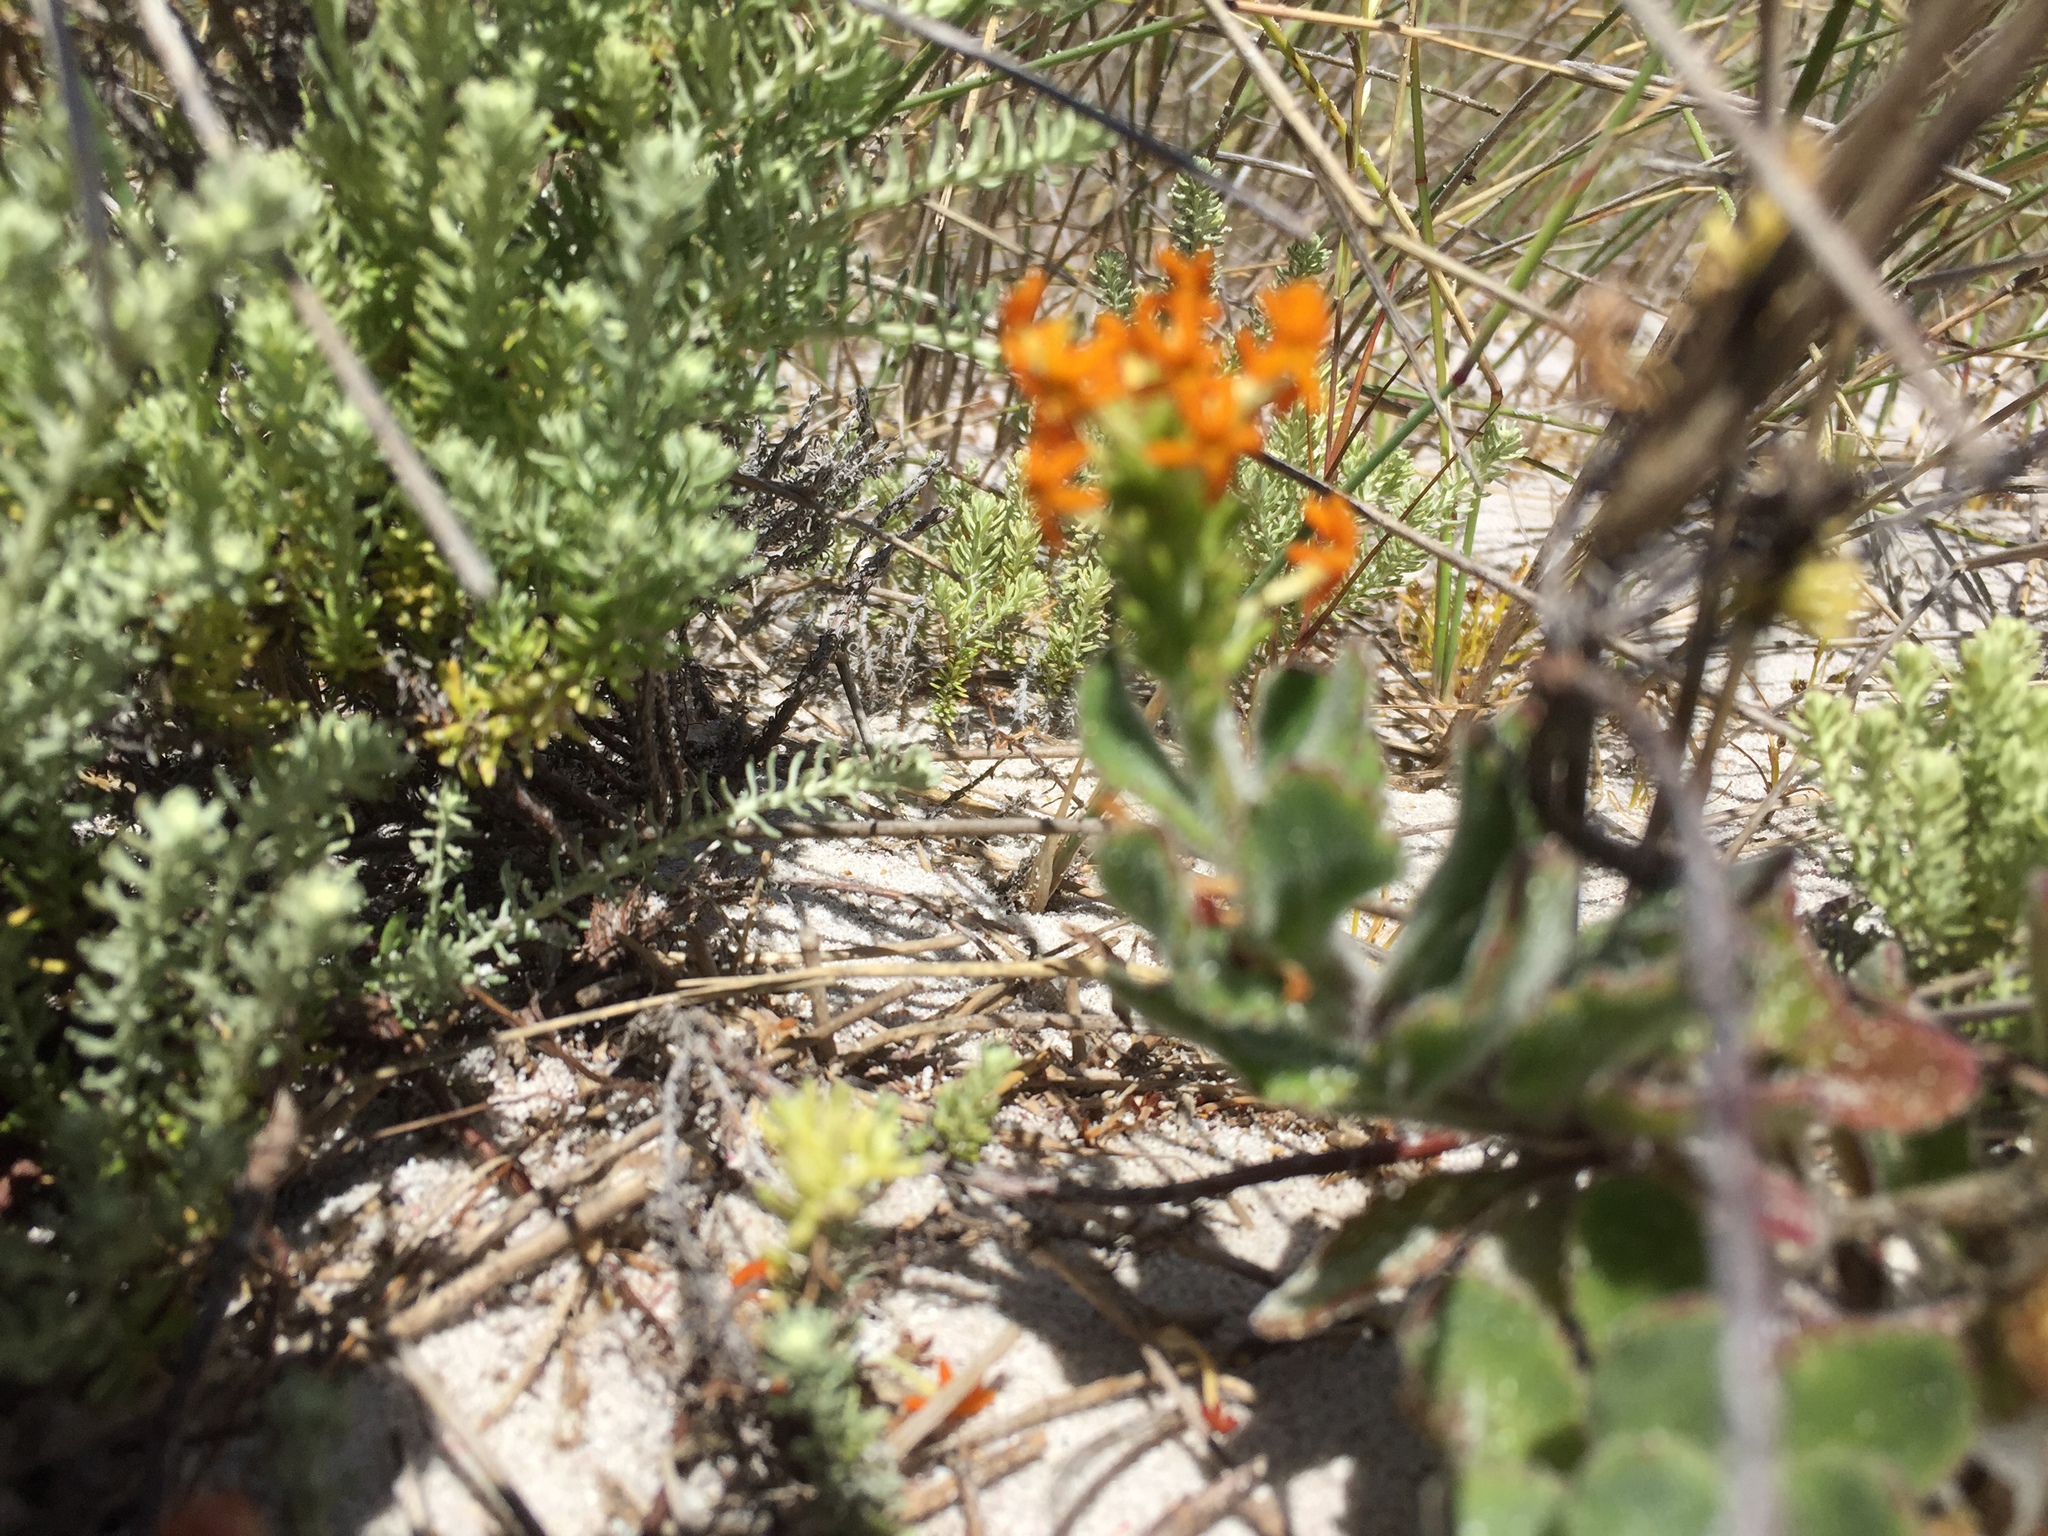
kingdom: Plantae
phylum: Tracheophyta
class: Magnoliopsida
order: Lamiales
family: Scrophulariaceae
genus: Manulea
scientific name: Manulea tomentosa
